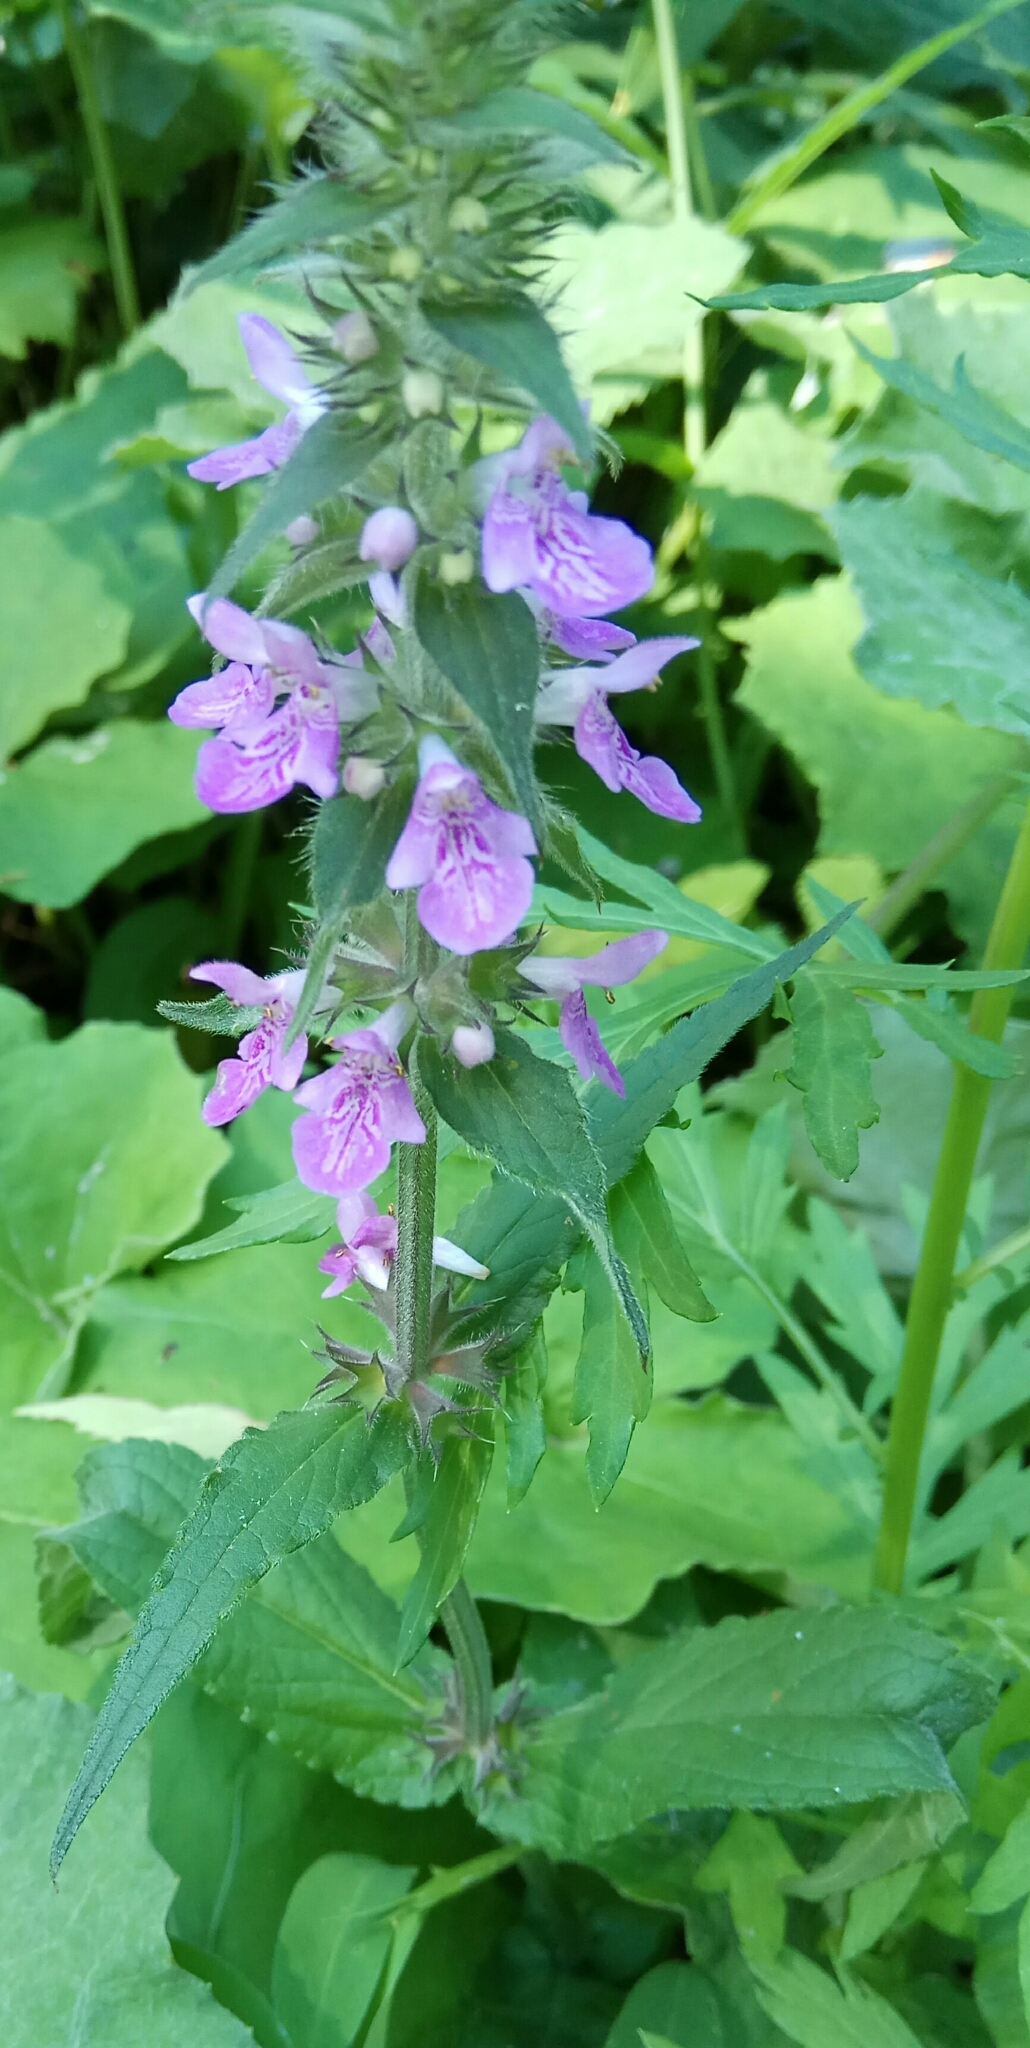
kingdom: Plantae
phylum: Tracheophyta
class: Magnoliopsida
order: Lamiales
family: Lamiaceae
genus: Stachys
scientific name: Stachys palustris
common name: Marsh woundwort
